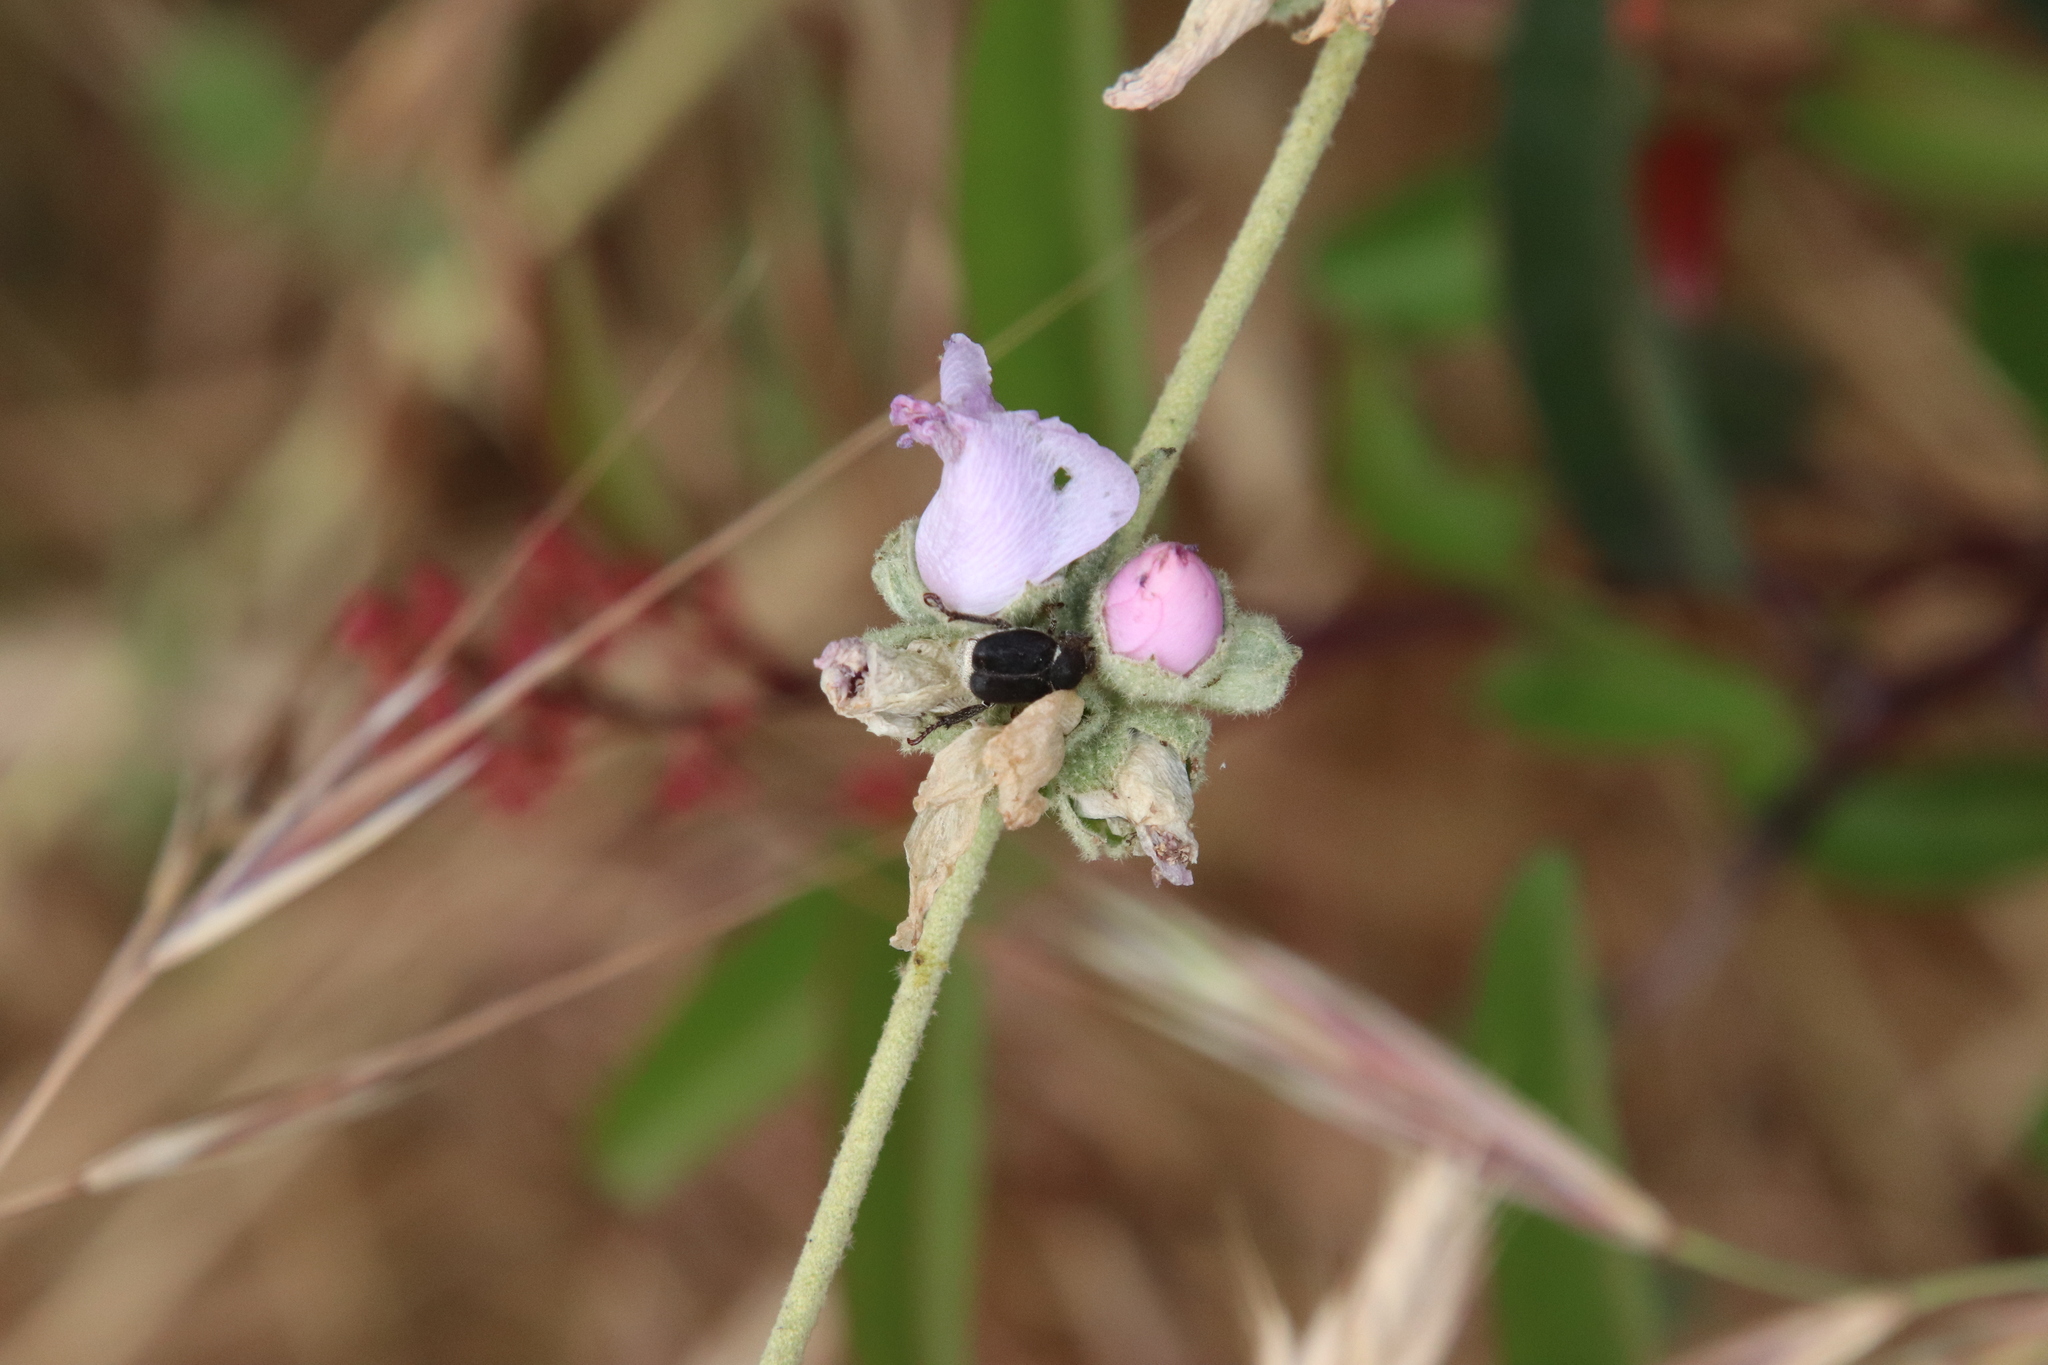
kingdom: Animalia
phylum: Arthropoda
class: Insecta
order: Coleoptera
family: Scarabaeidae
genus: Hoplia
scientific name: Hoplia callipyge
